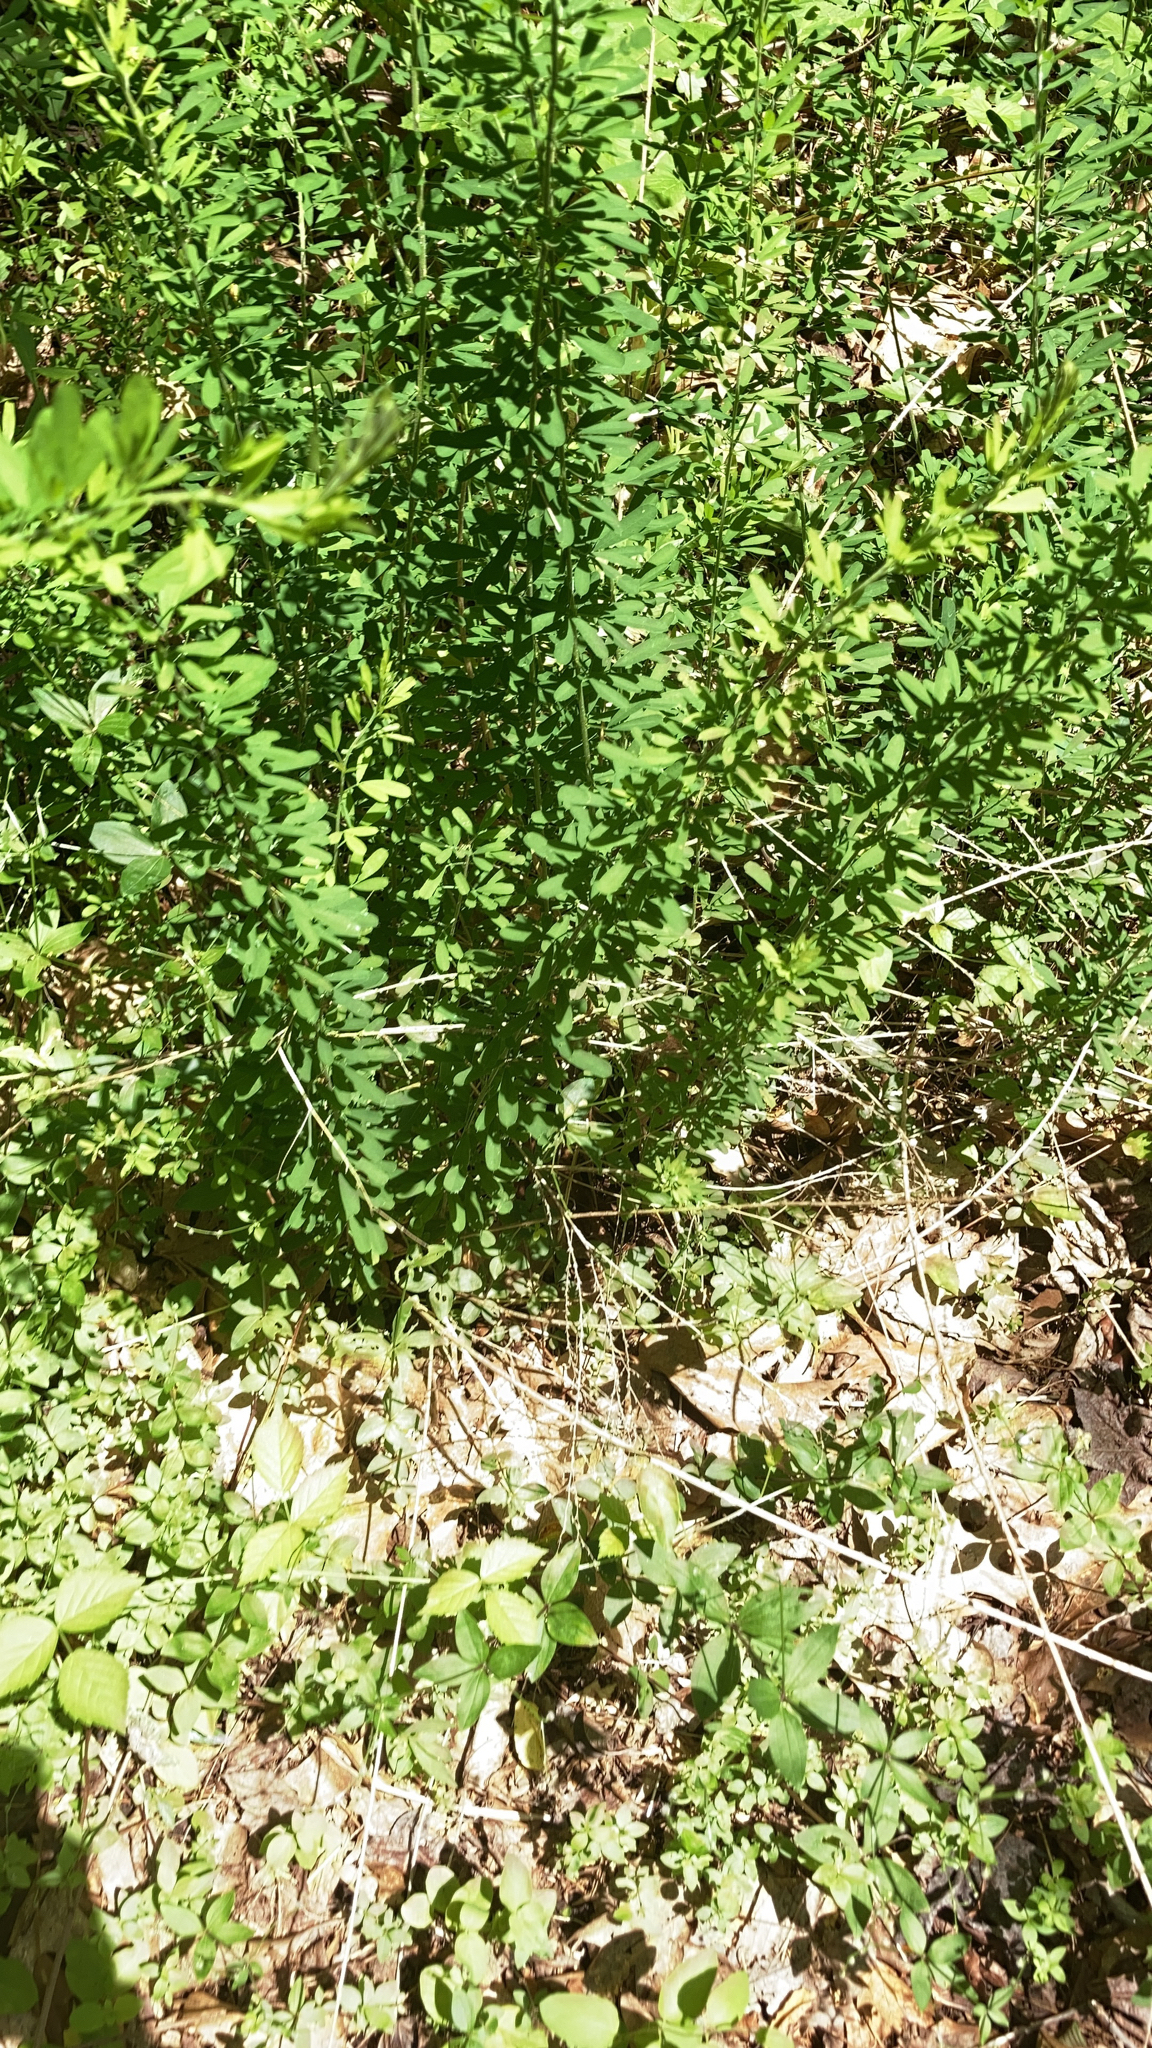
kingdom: Plantae
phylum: Tracheophyta
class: Magnoliopsida
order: Fabales
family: Fabaceae
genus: Lespedeza
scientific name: Lespedeza cuneata
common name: Chinese bush-clover
